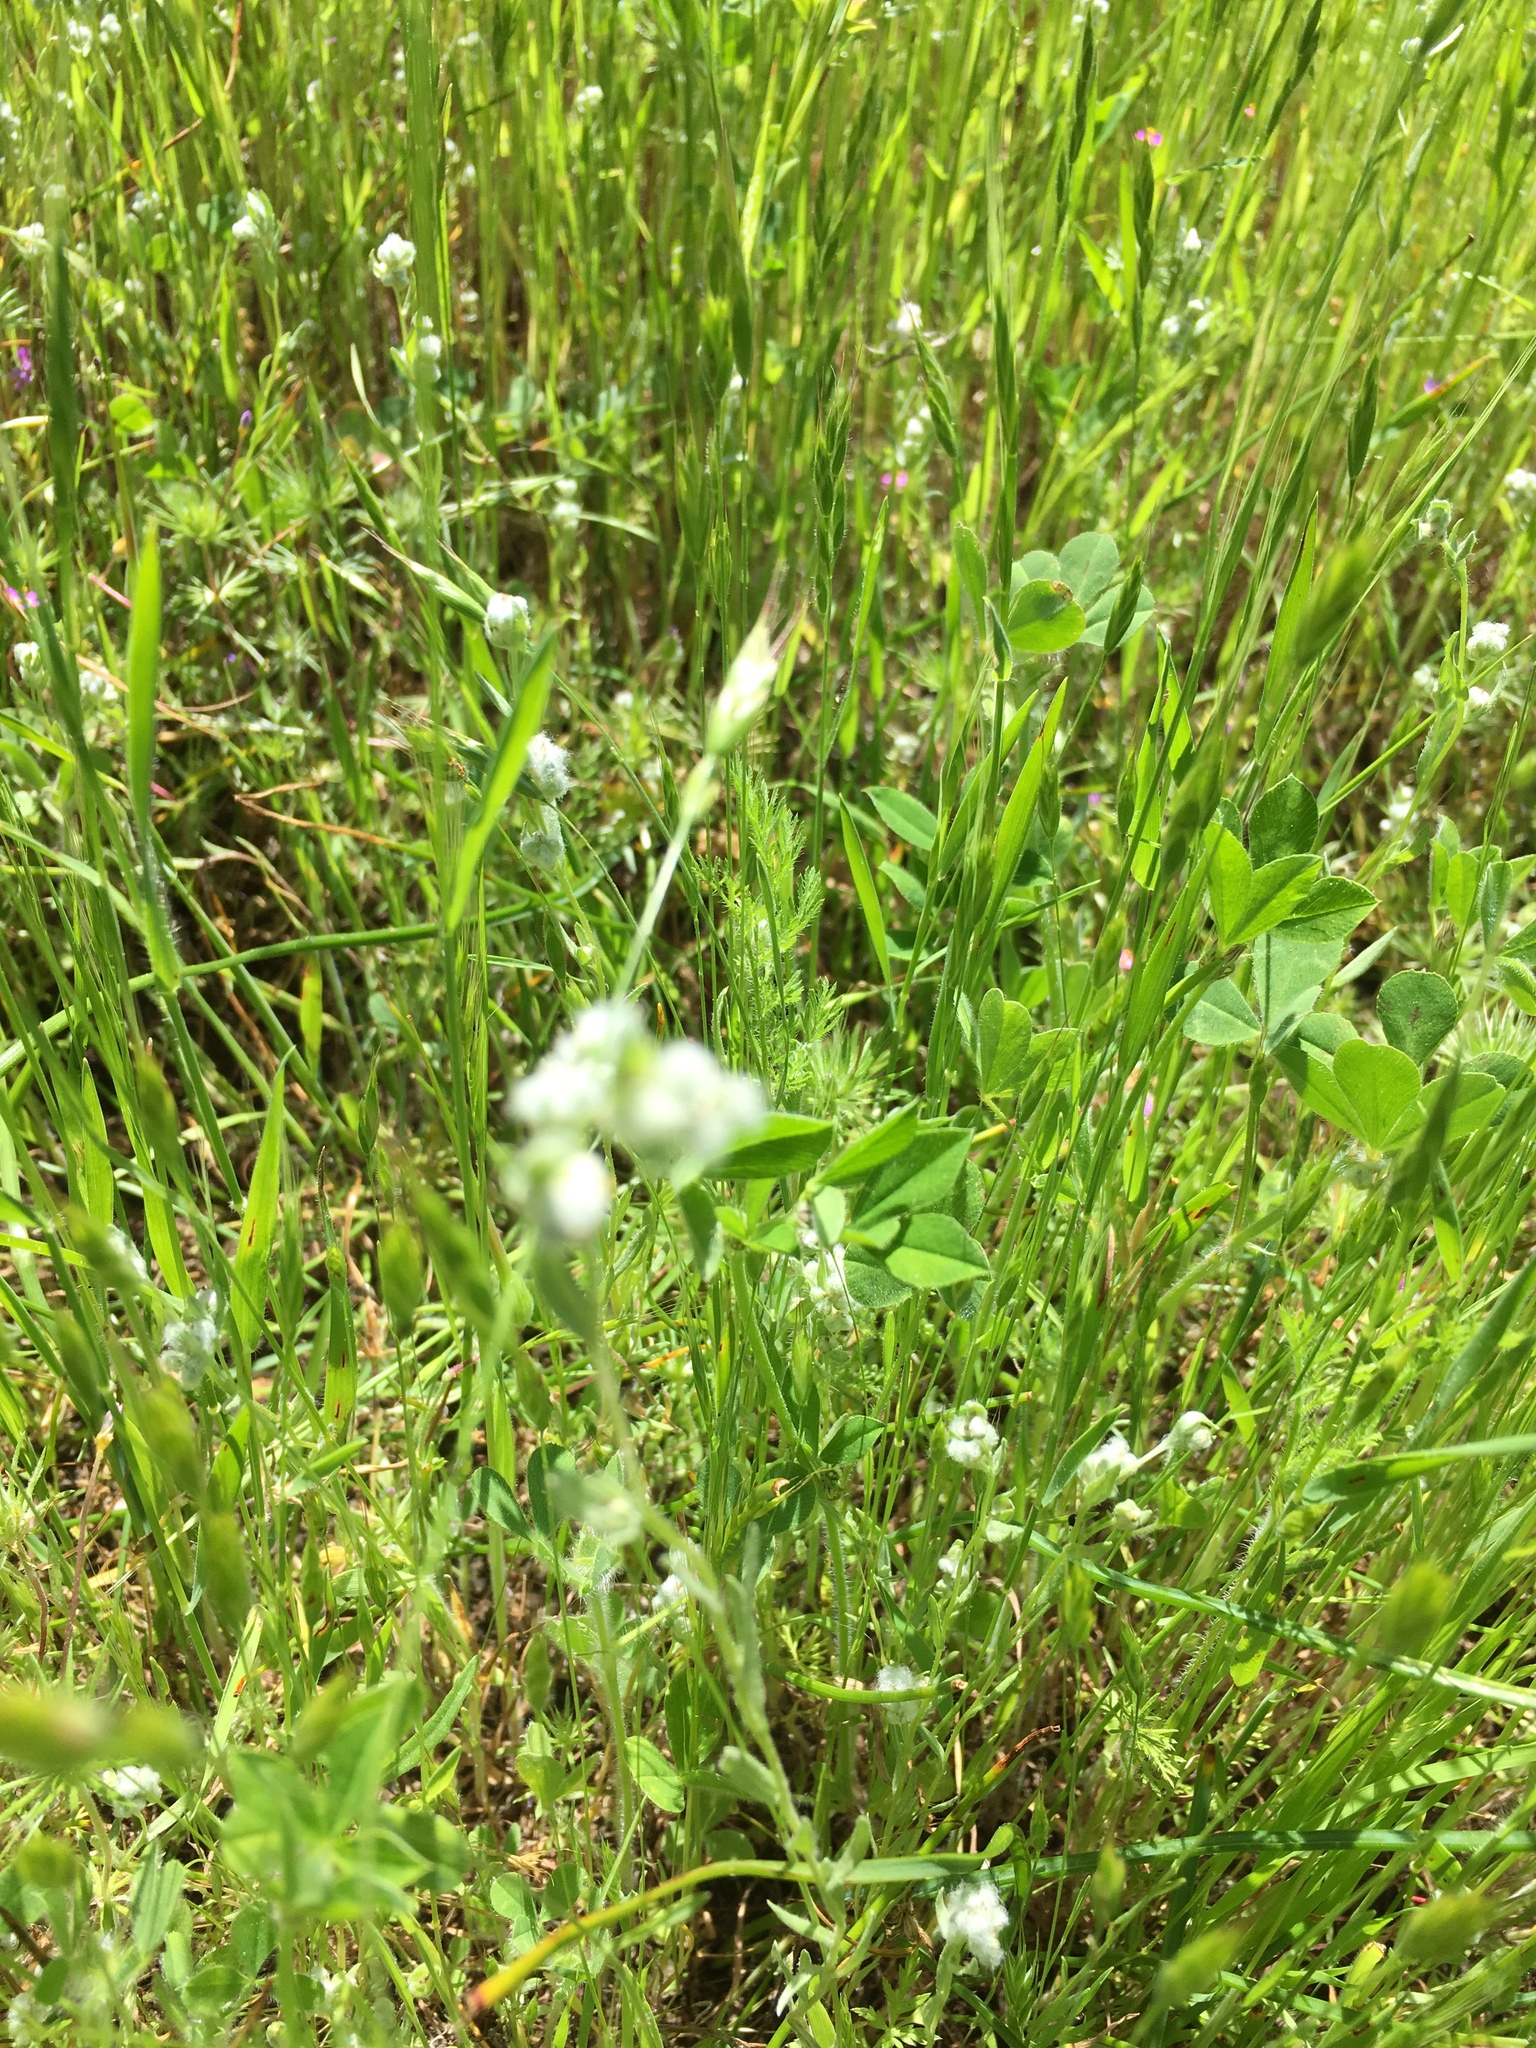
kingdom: Plantae
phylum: Tracheophyta
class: Magnoliopsida
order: Asterales
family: Asteraceae
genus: Bombycilaena
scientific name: Bombycilaena californica
